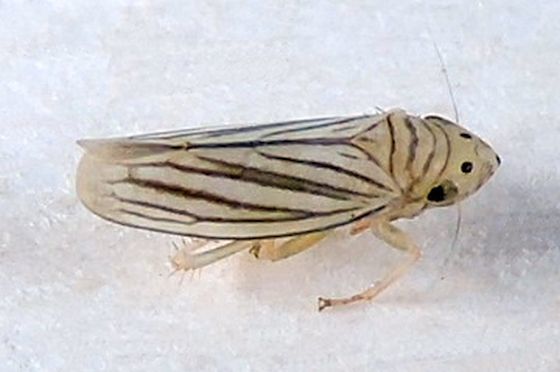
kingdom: Animalia
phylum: Arthropoda
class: Insecta
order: Hemiptera
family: Cicadellidae
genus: Provancherana
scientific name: Provancherana tripunctata
